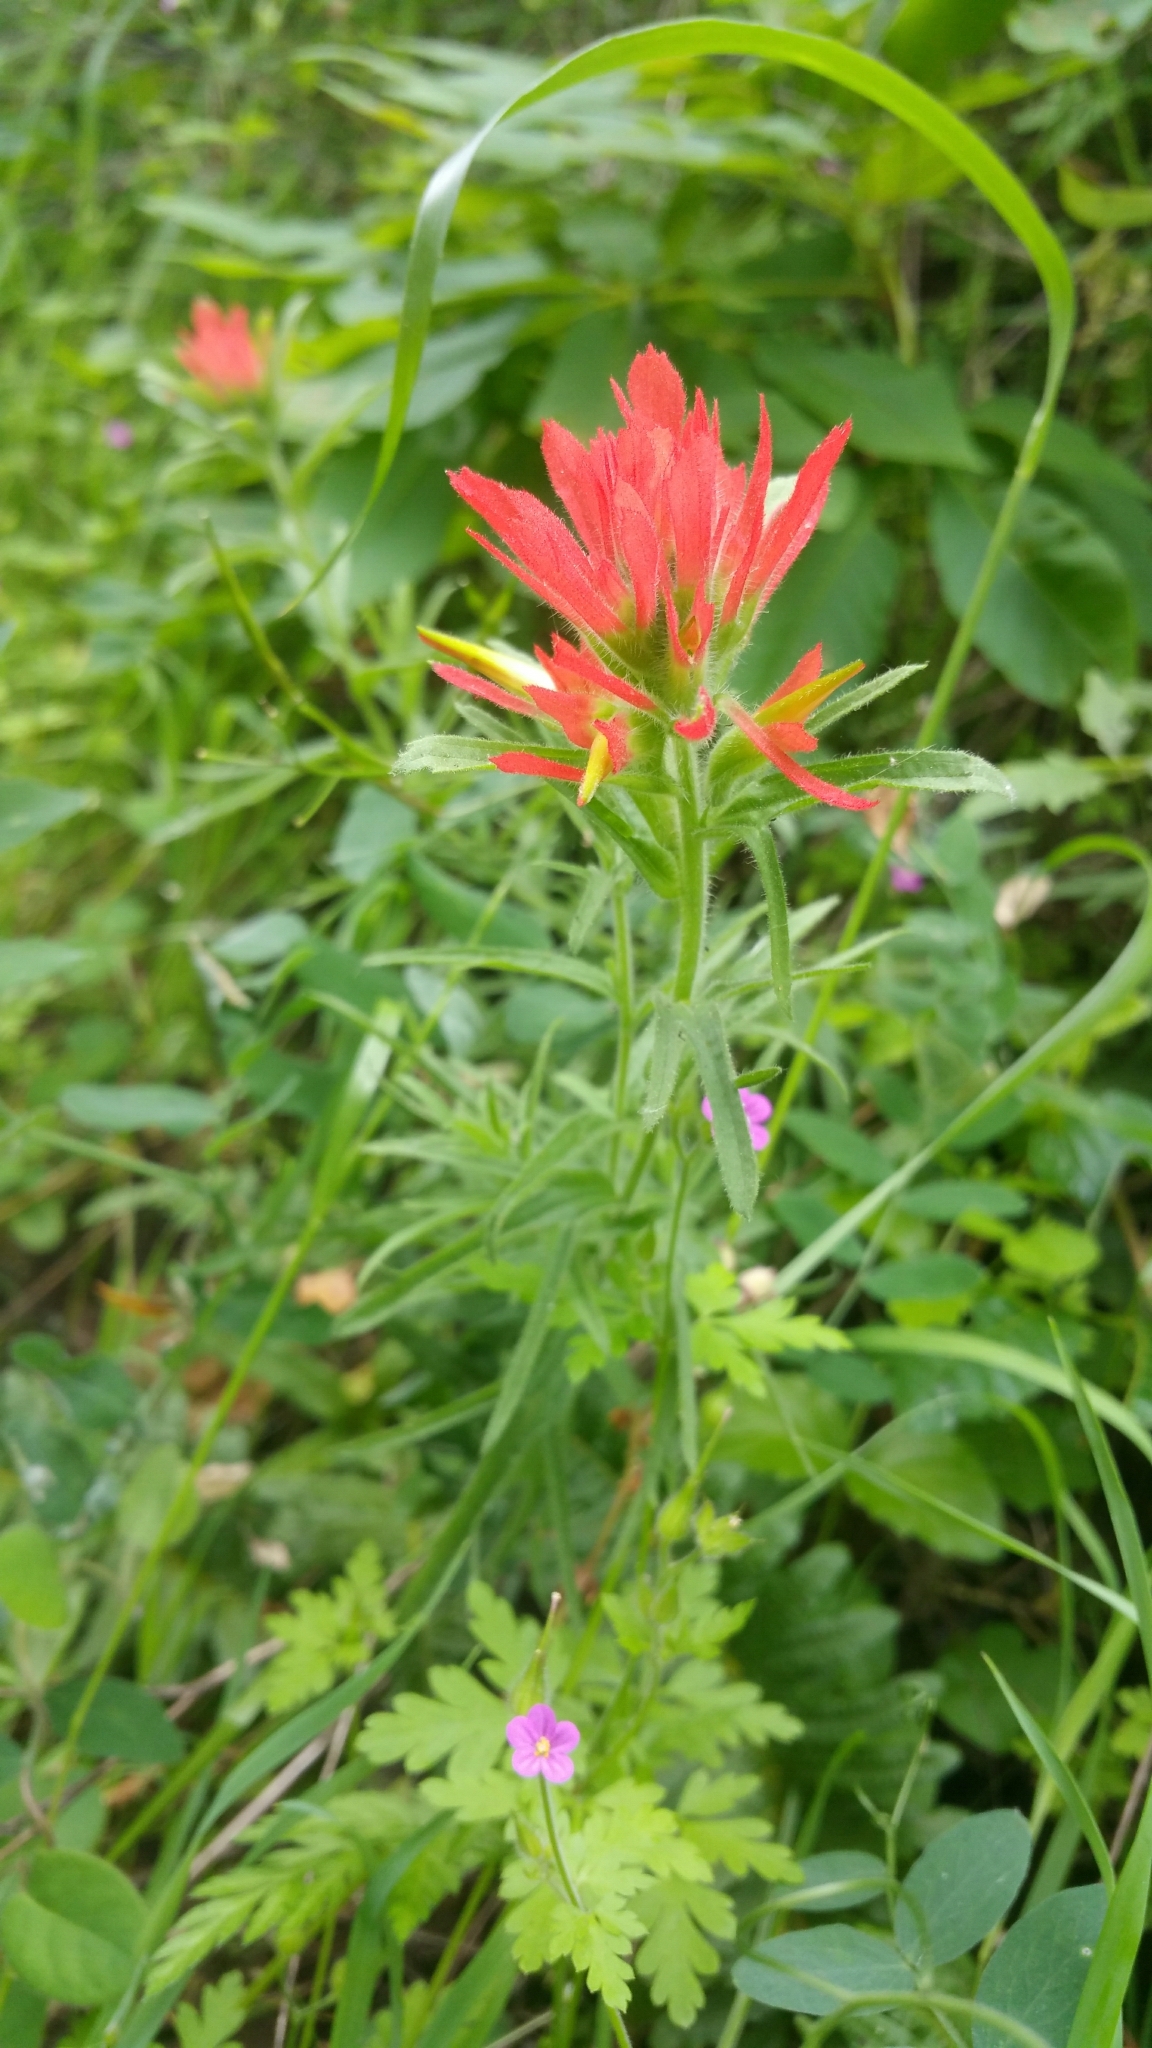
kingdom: Plantae
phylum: Tracheophyta
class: Magnoliopsida
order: Lamiales
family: Orobanchaceae
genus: Castilleja
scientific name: Castilleja affinis
